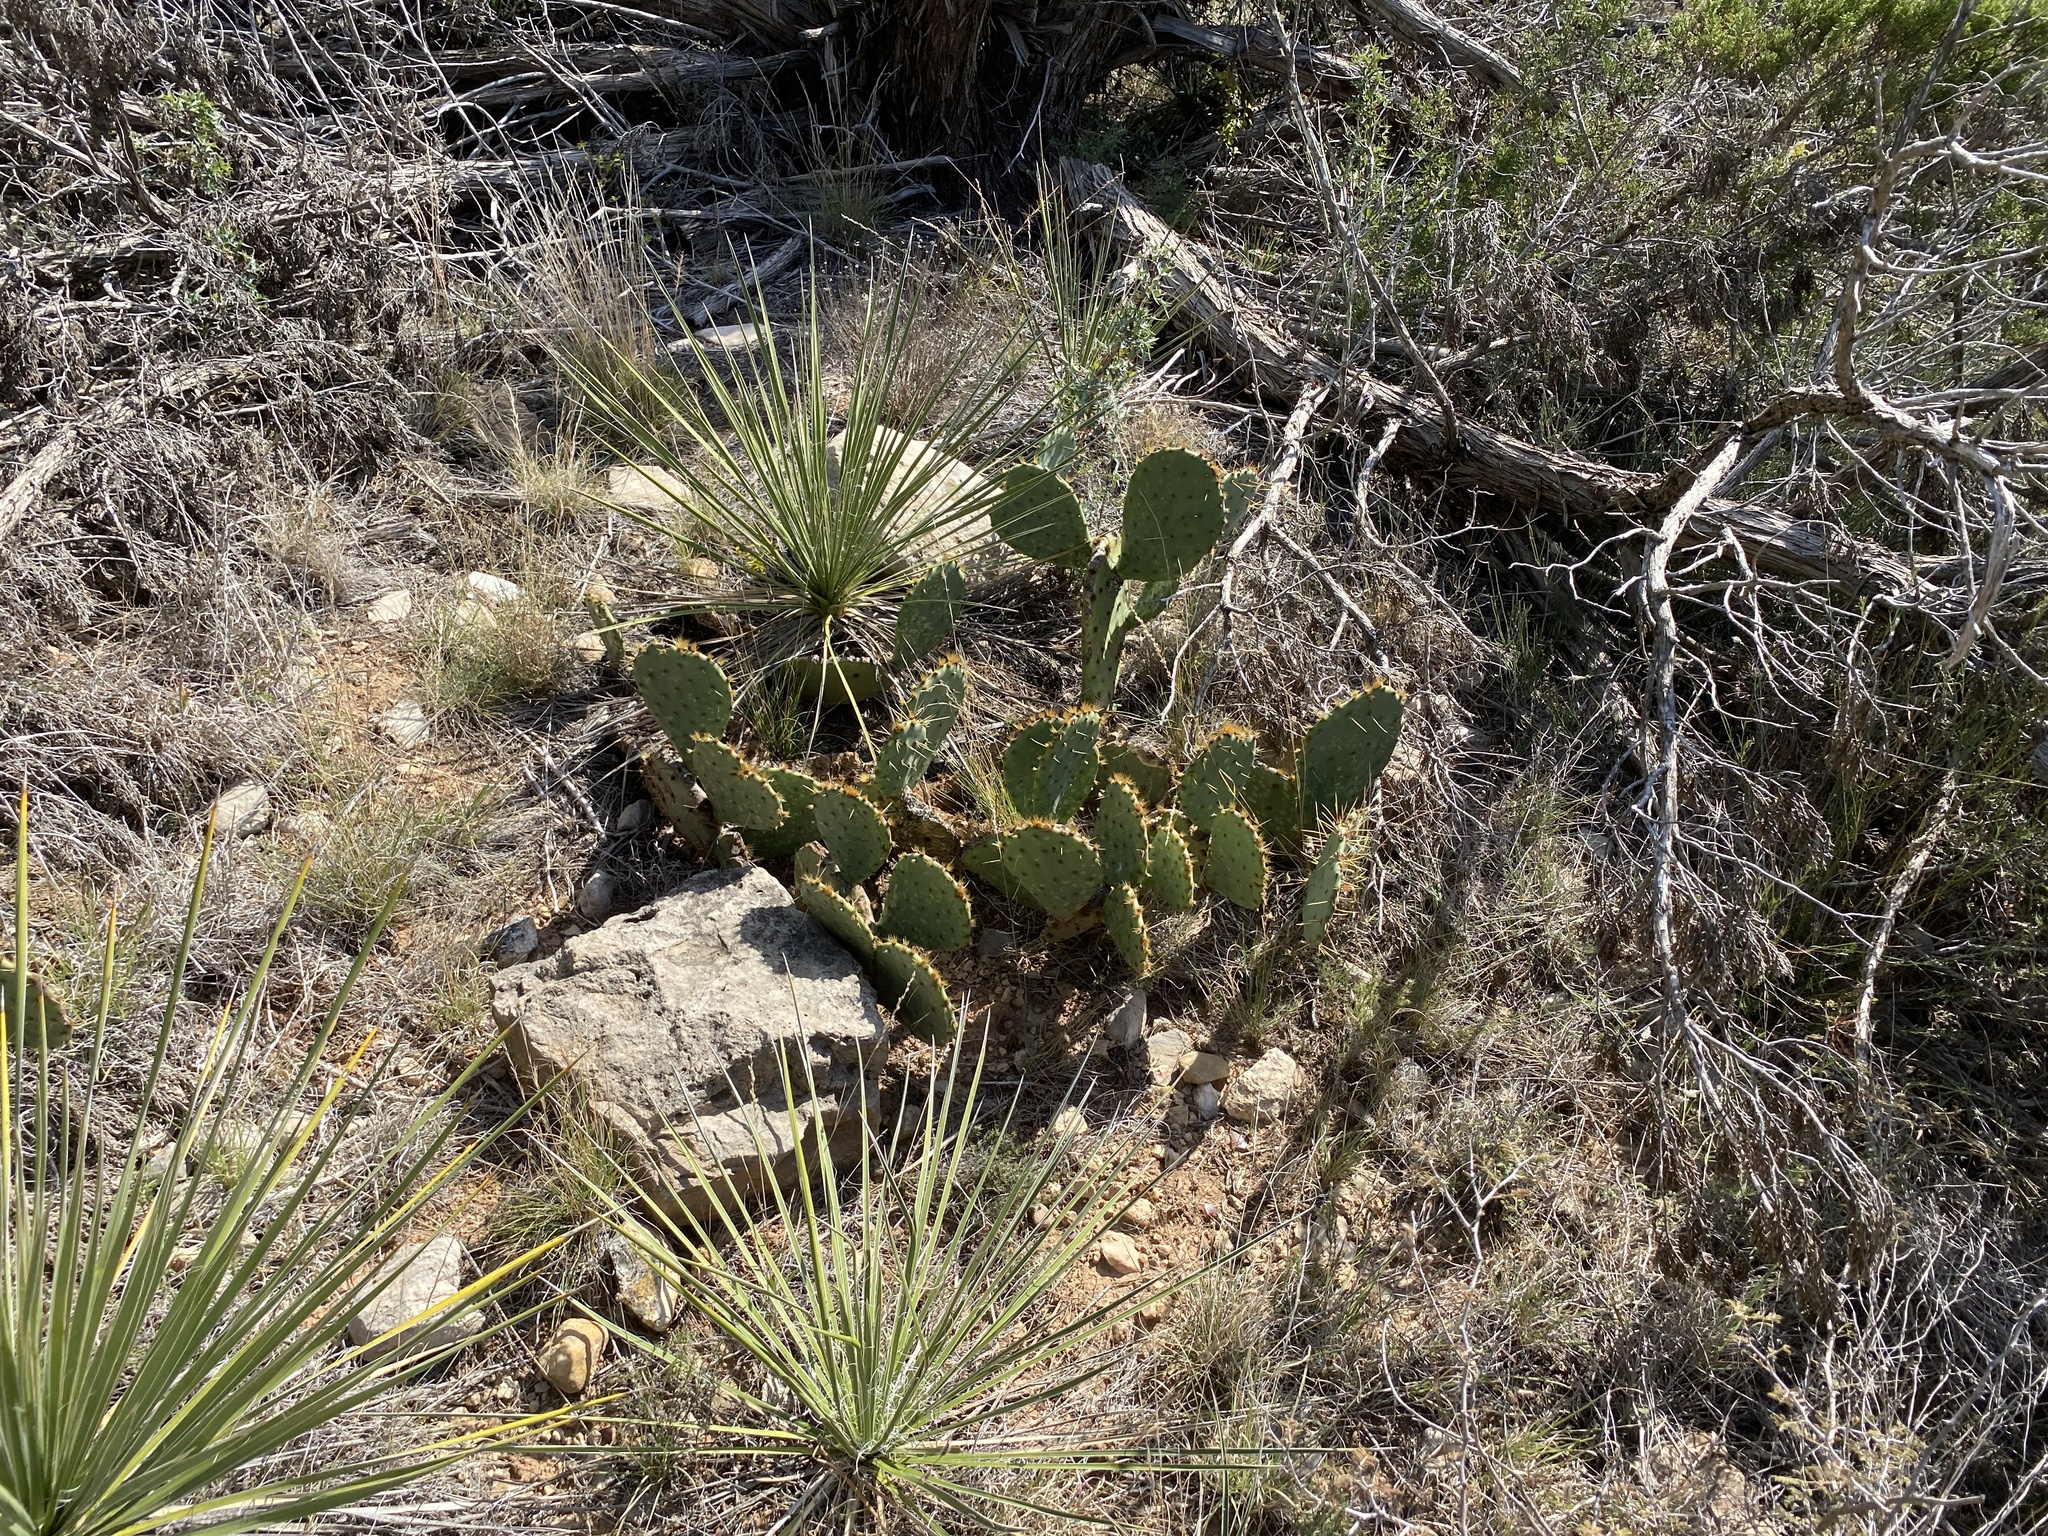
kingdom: Plantae
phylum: Tracheophyta
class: Magnoliopsida
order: Caryophyllales
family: Cactaceae
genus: Opuntia
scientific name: Opuntia engelmannii
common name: Cactus-apple
